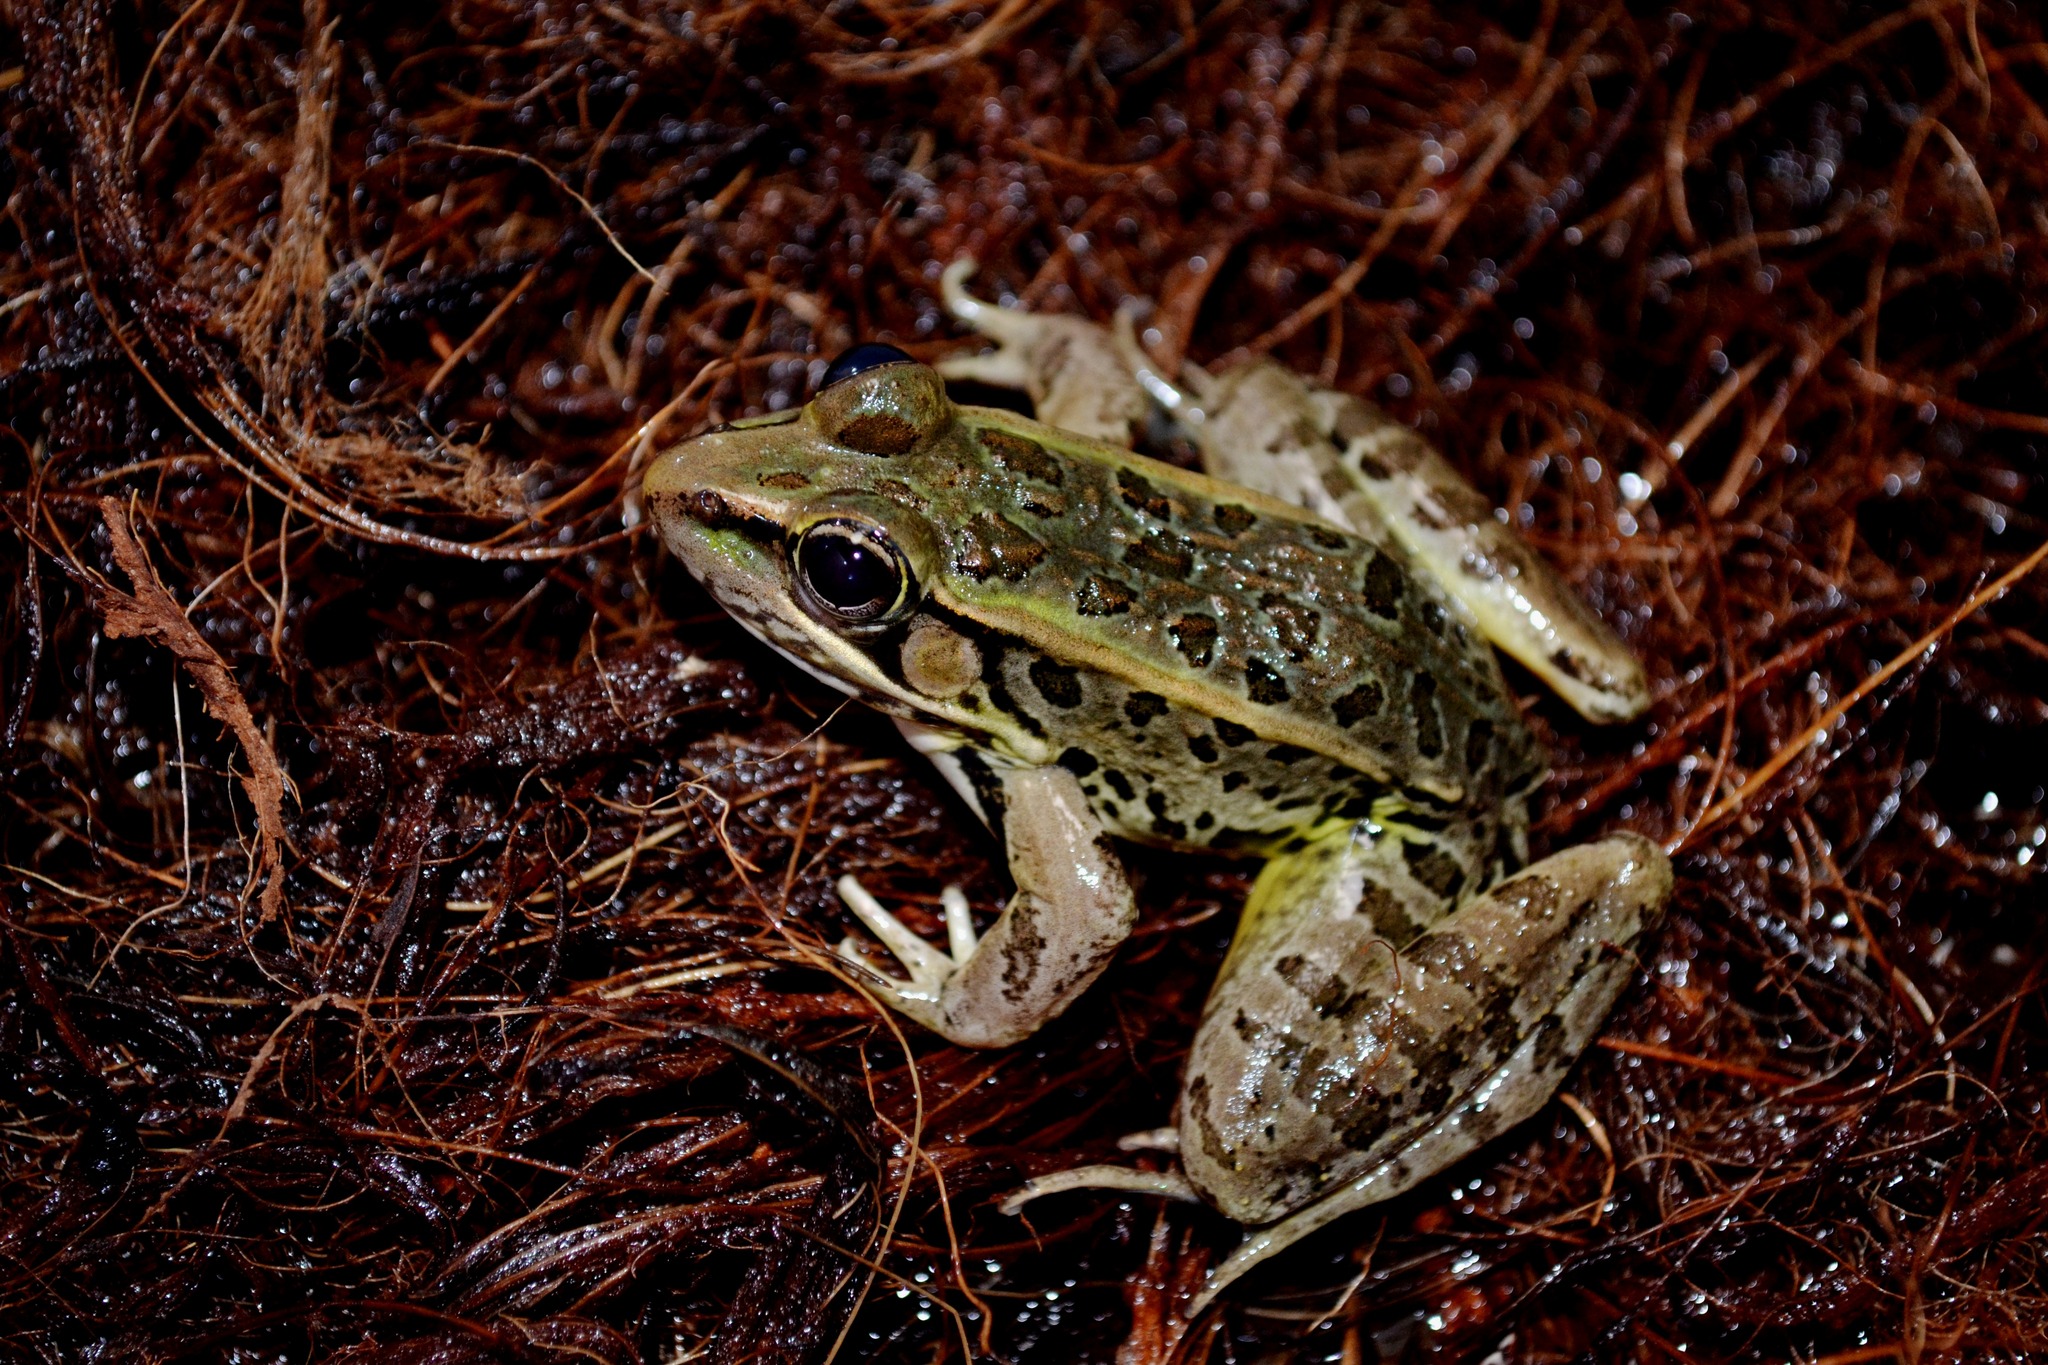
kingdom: Animalia
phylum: Chordata
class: Amphibia
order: Anura
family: Ranidae
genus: Lithobates
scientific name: Lithobates brownorum
